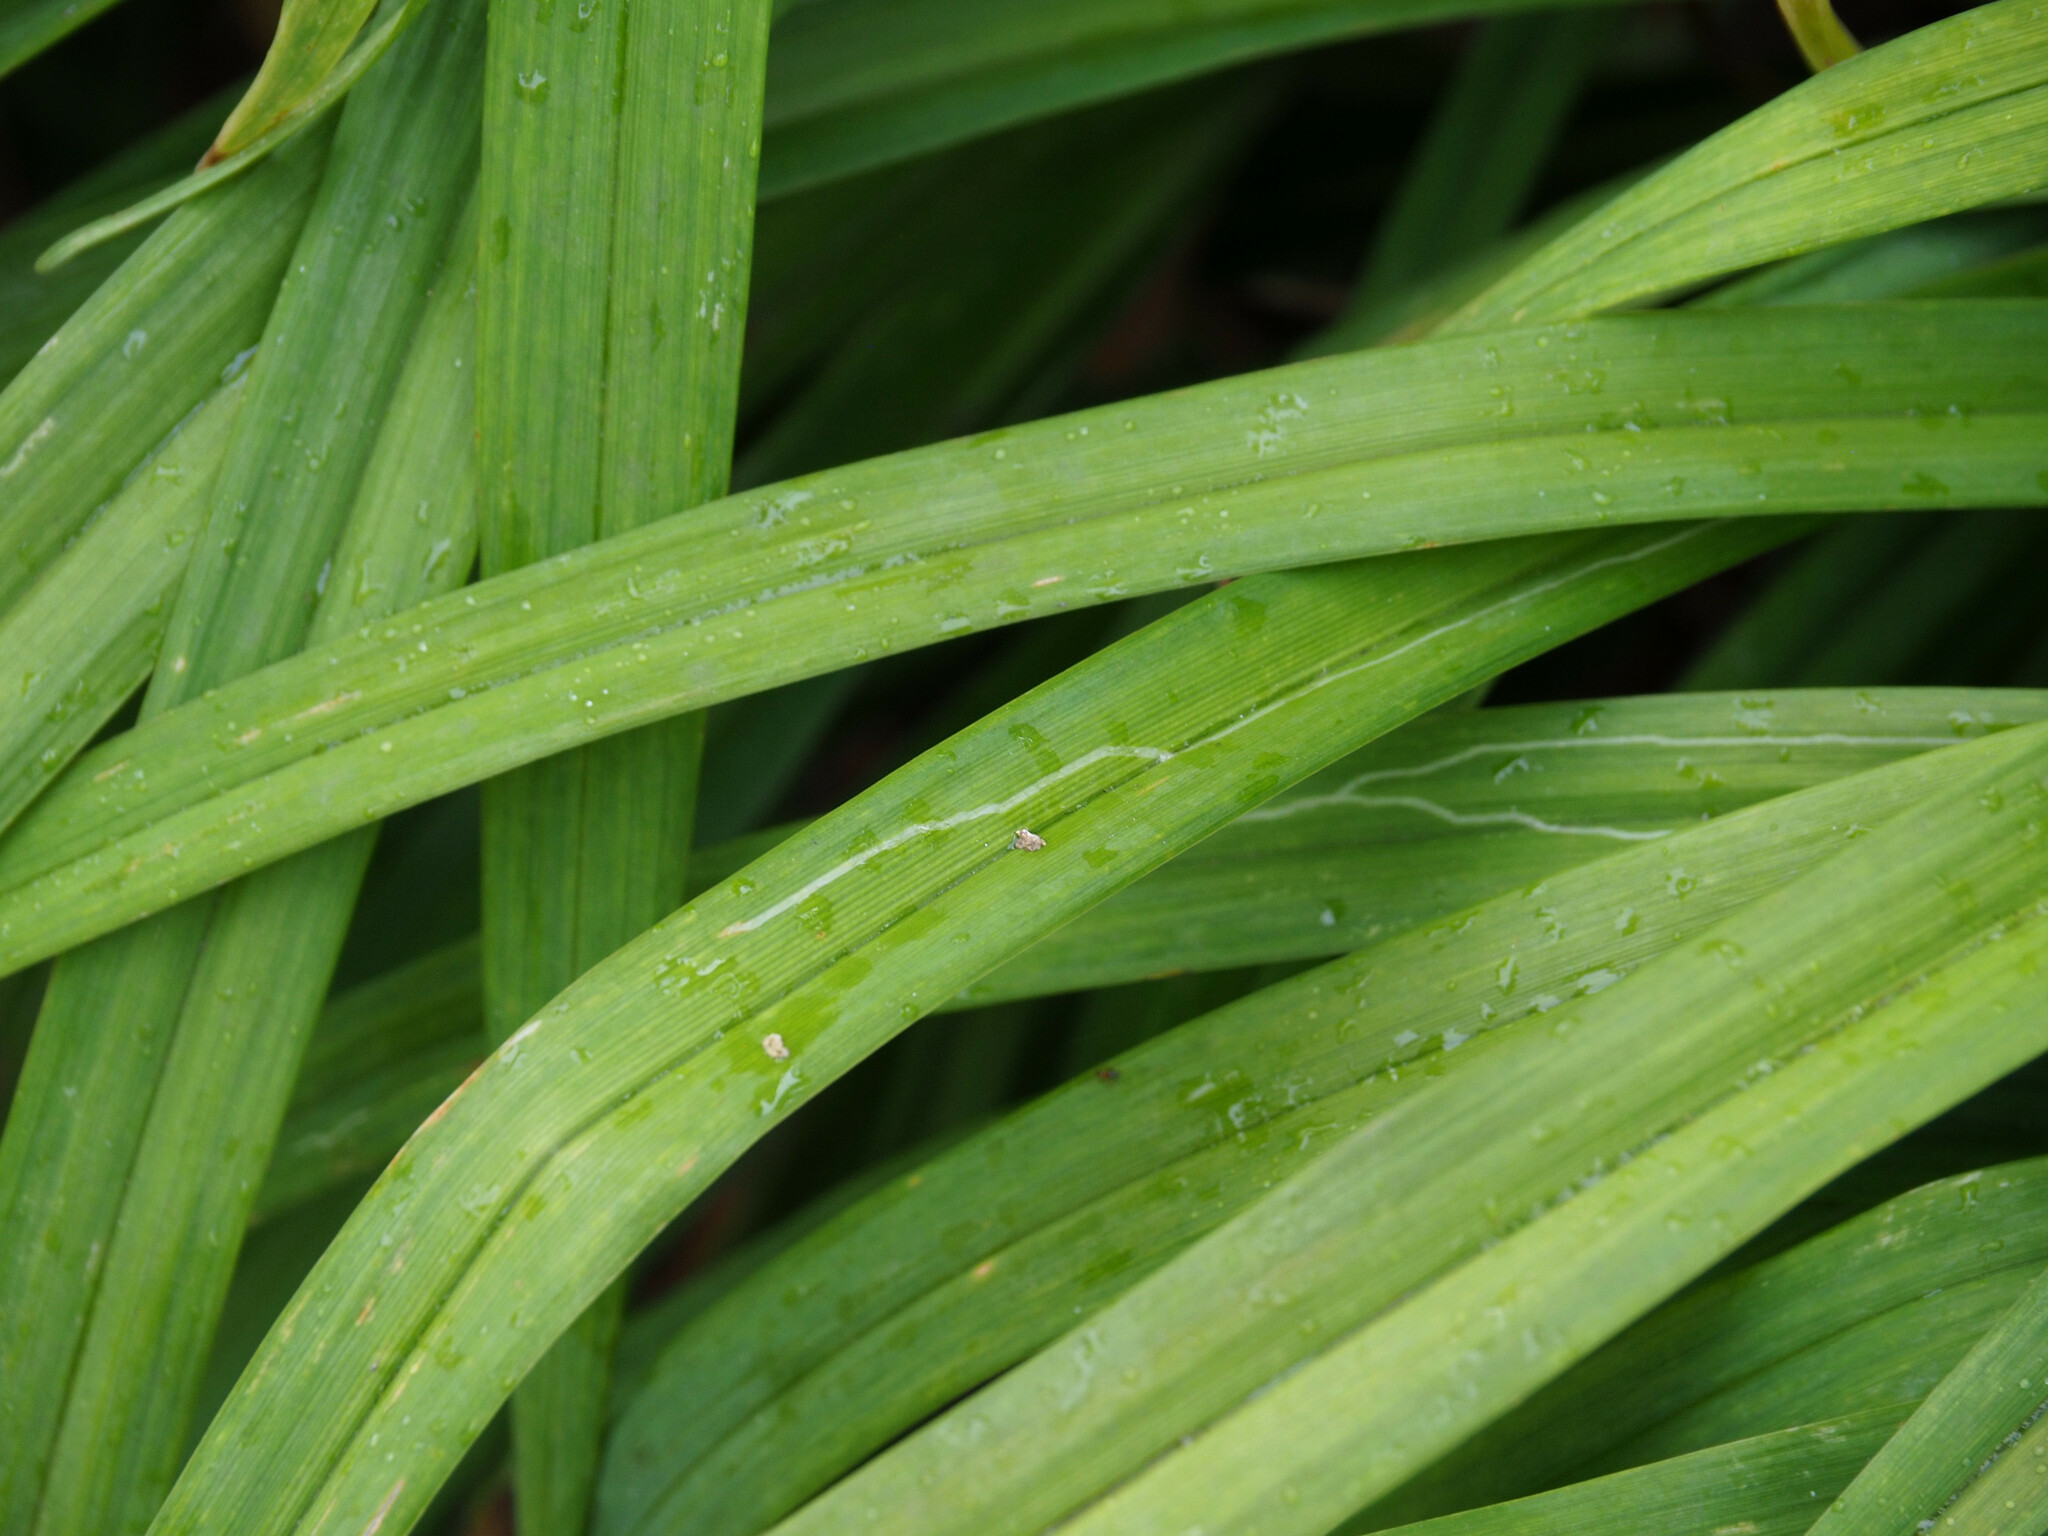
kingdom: Animalia
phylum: Arthropoda
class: Insecta
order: Diptera
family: Agromyzidae
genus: Ophiomyia
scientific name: Ophiomyia kwansonis
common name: Daylily leafminer
